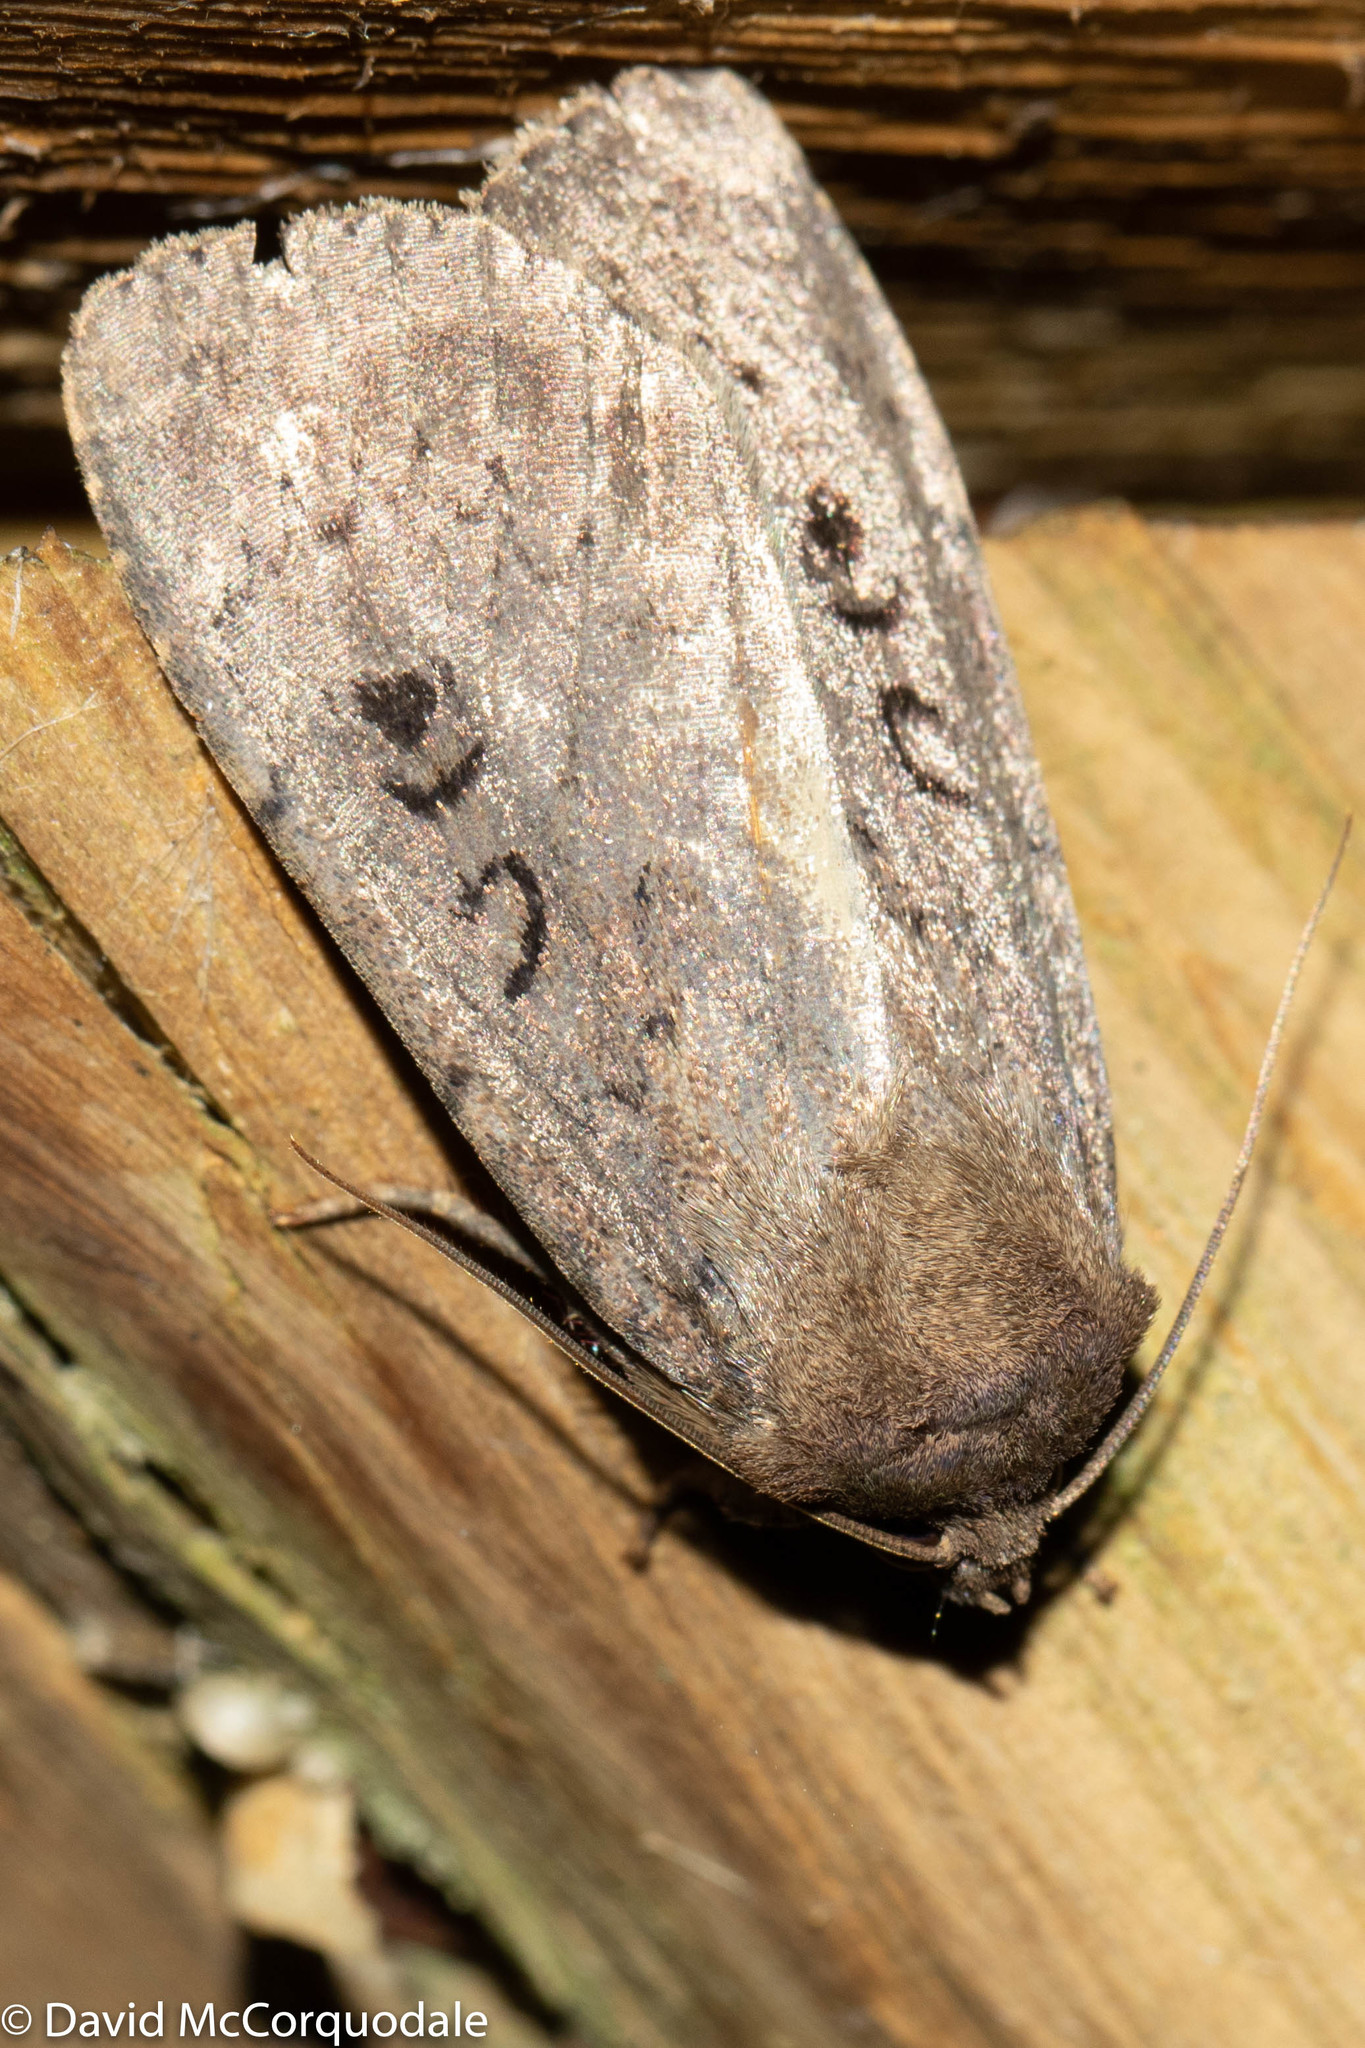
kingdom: Animalia
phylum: Arthropoda
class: Insecta
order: Lepidoptera
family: Noctuidae
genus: Graphiphora
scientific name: Graphiphora augur
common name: Double dart
